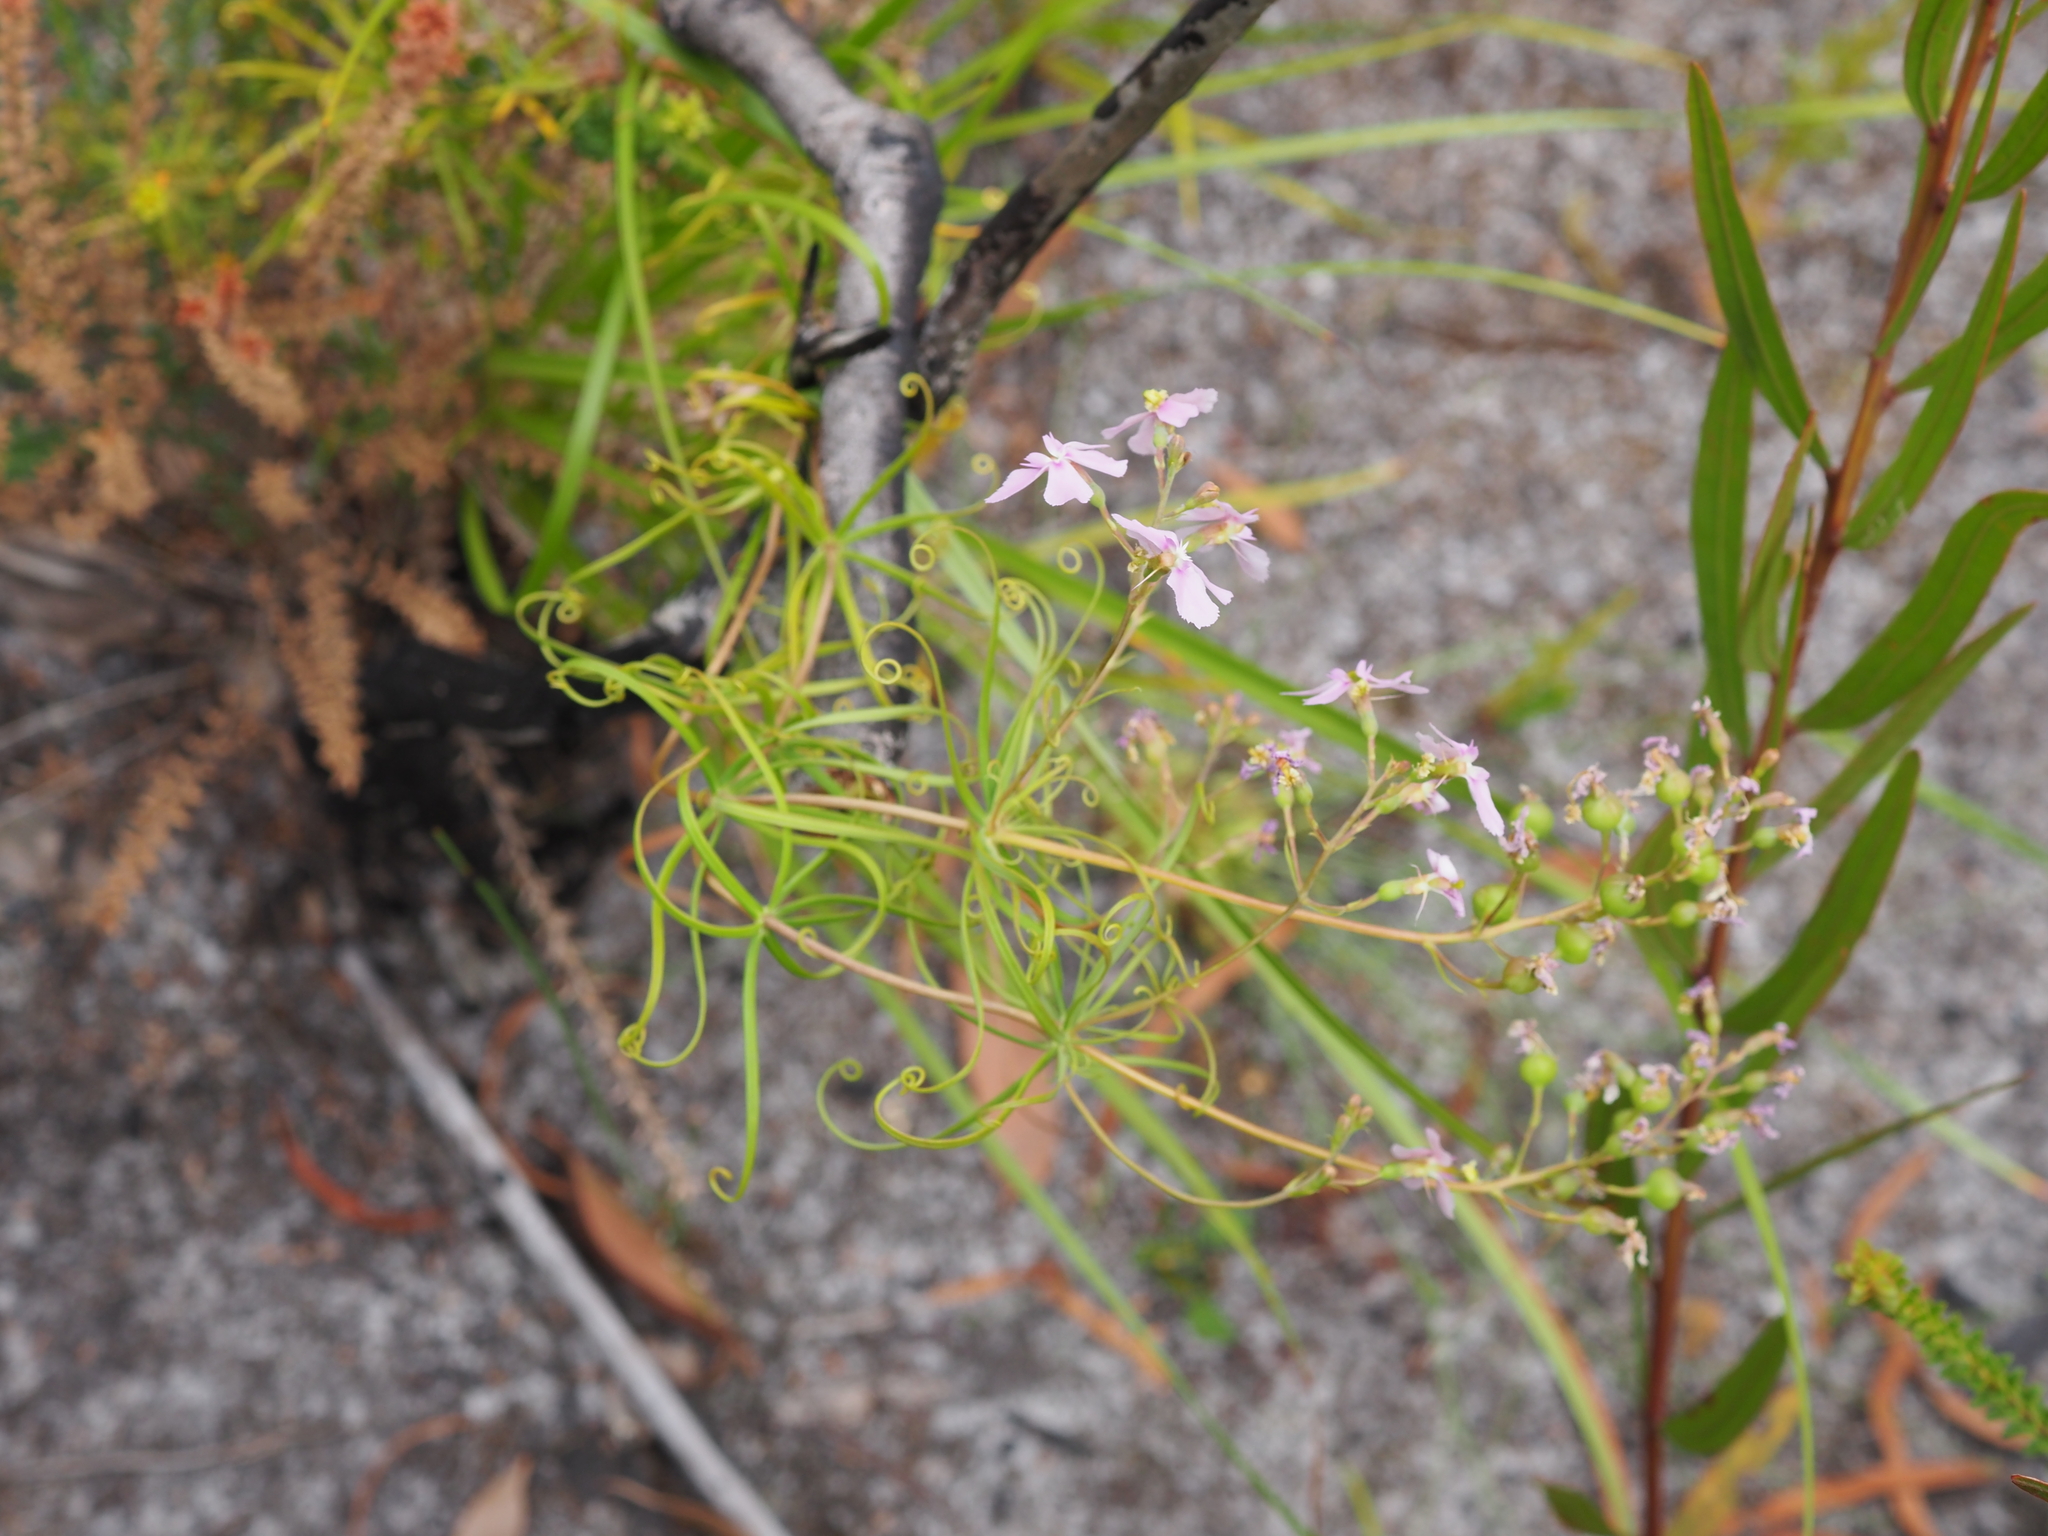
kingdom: Plantae
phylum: Tracheophyta
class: Magnoliopsida
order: Asterales
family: Stylidiaceae
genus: Stylidium
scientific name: Stylidium nymphaeum
